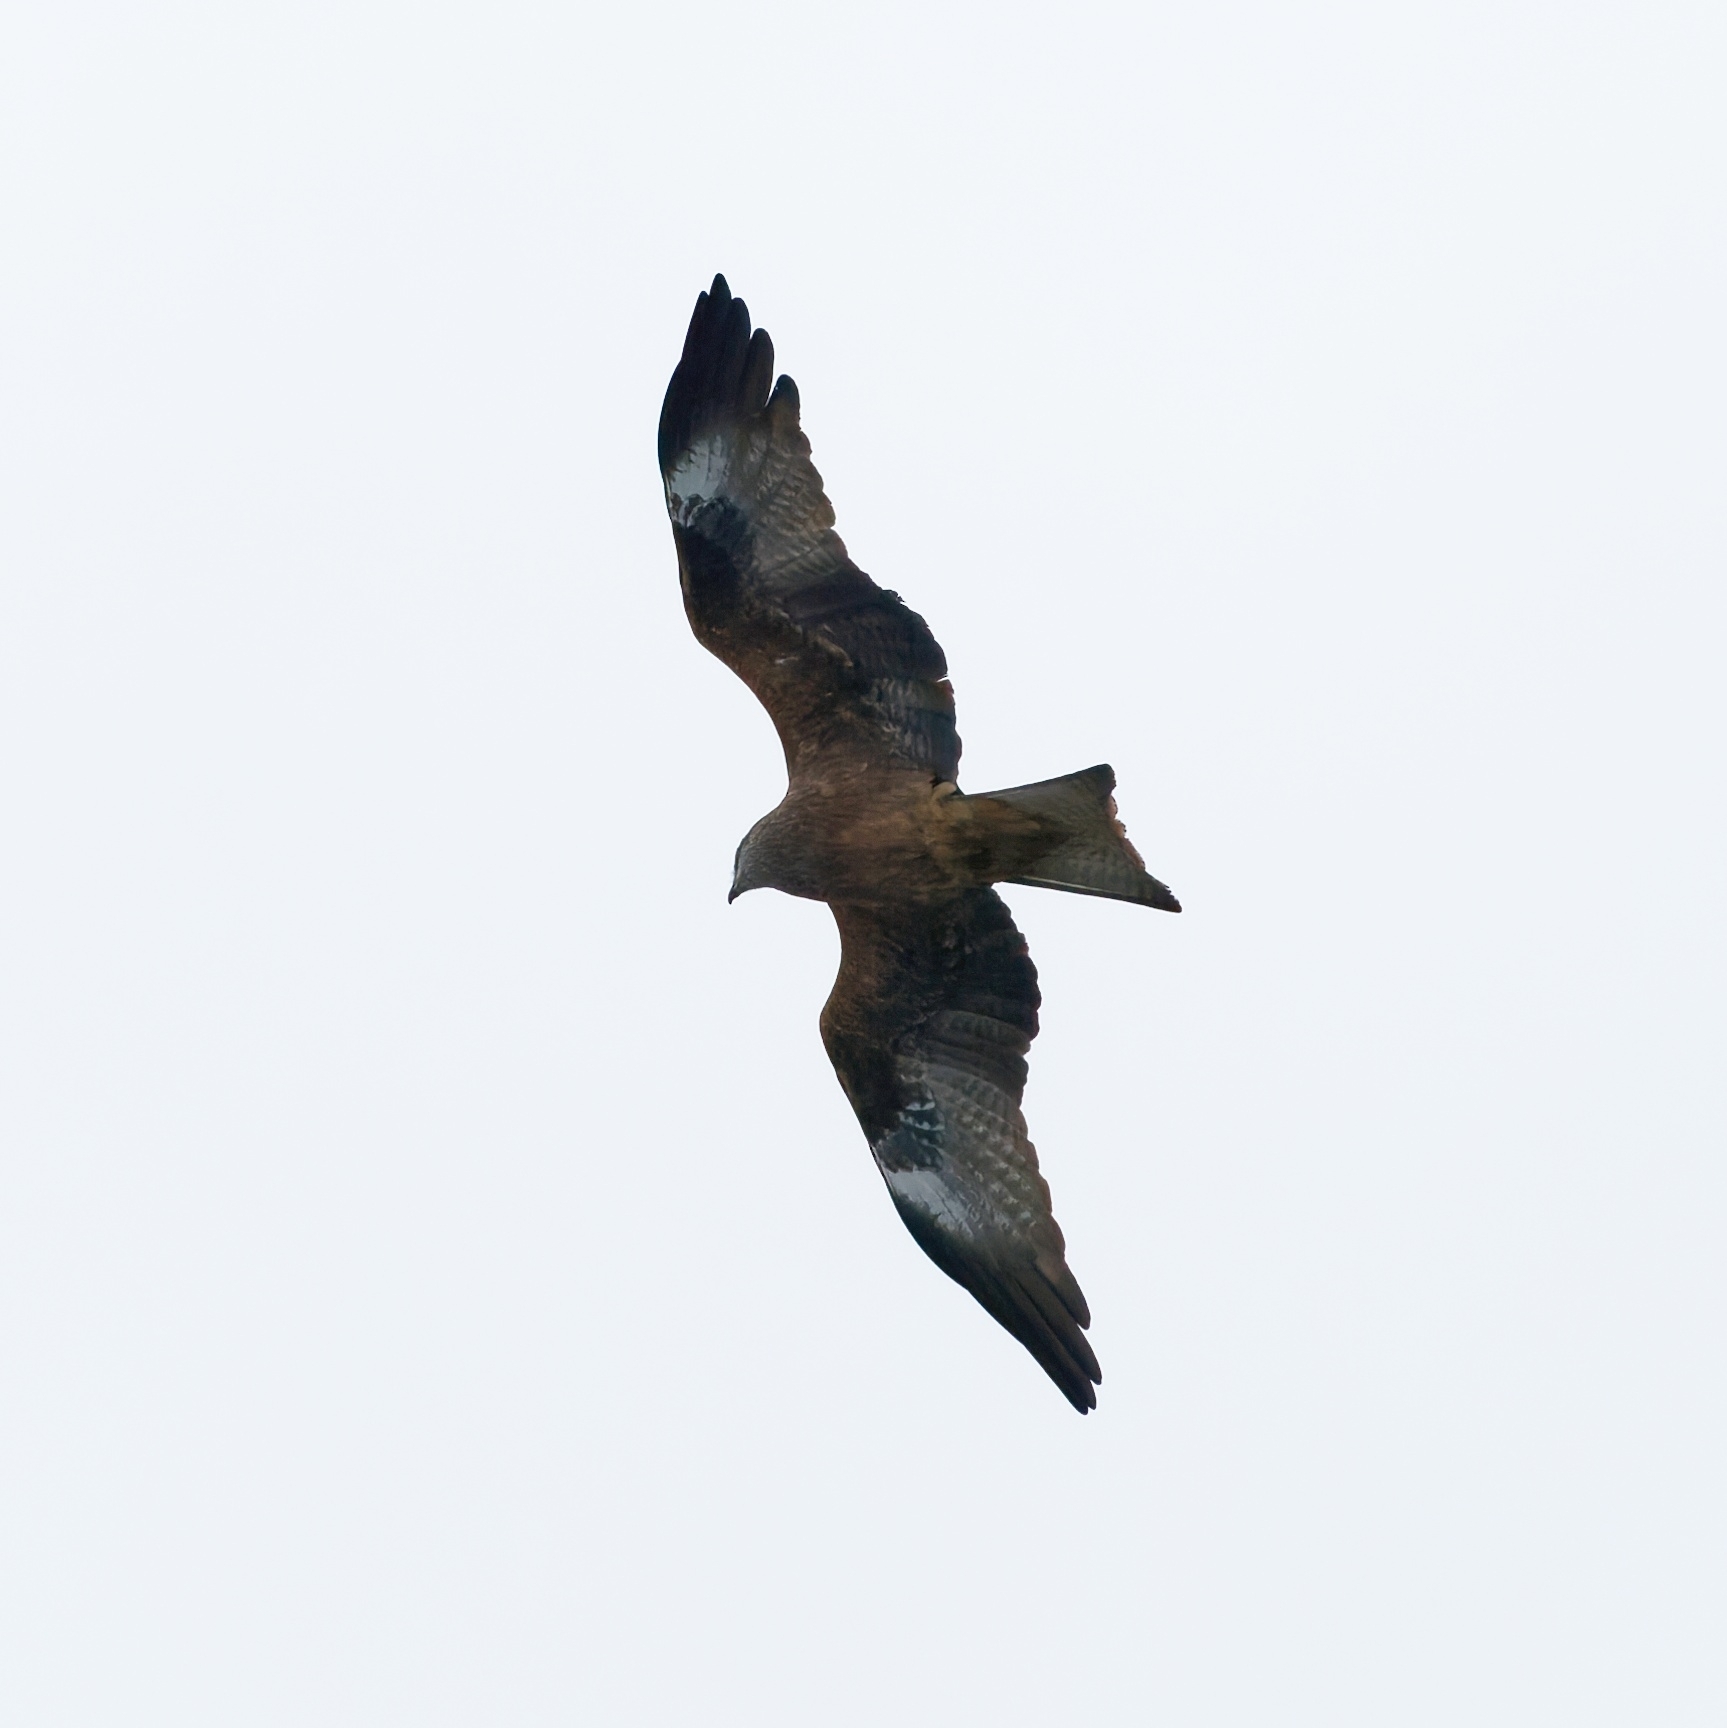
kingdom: Animalia
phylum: Chordata
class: Aves
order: Accipitriformes
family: Accipitridae
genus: Milvus
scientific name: Milvus migrans
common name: Black kite
